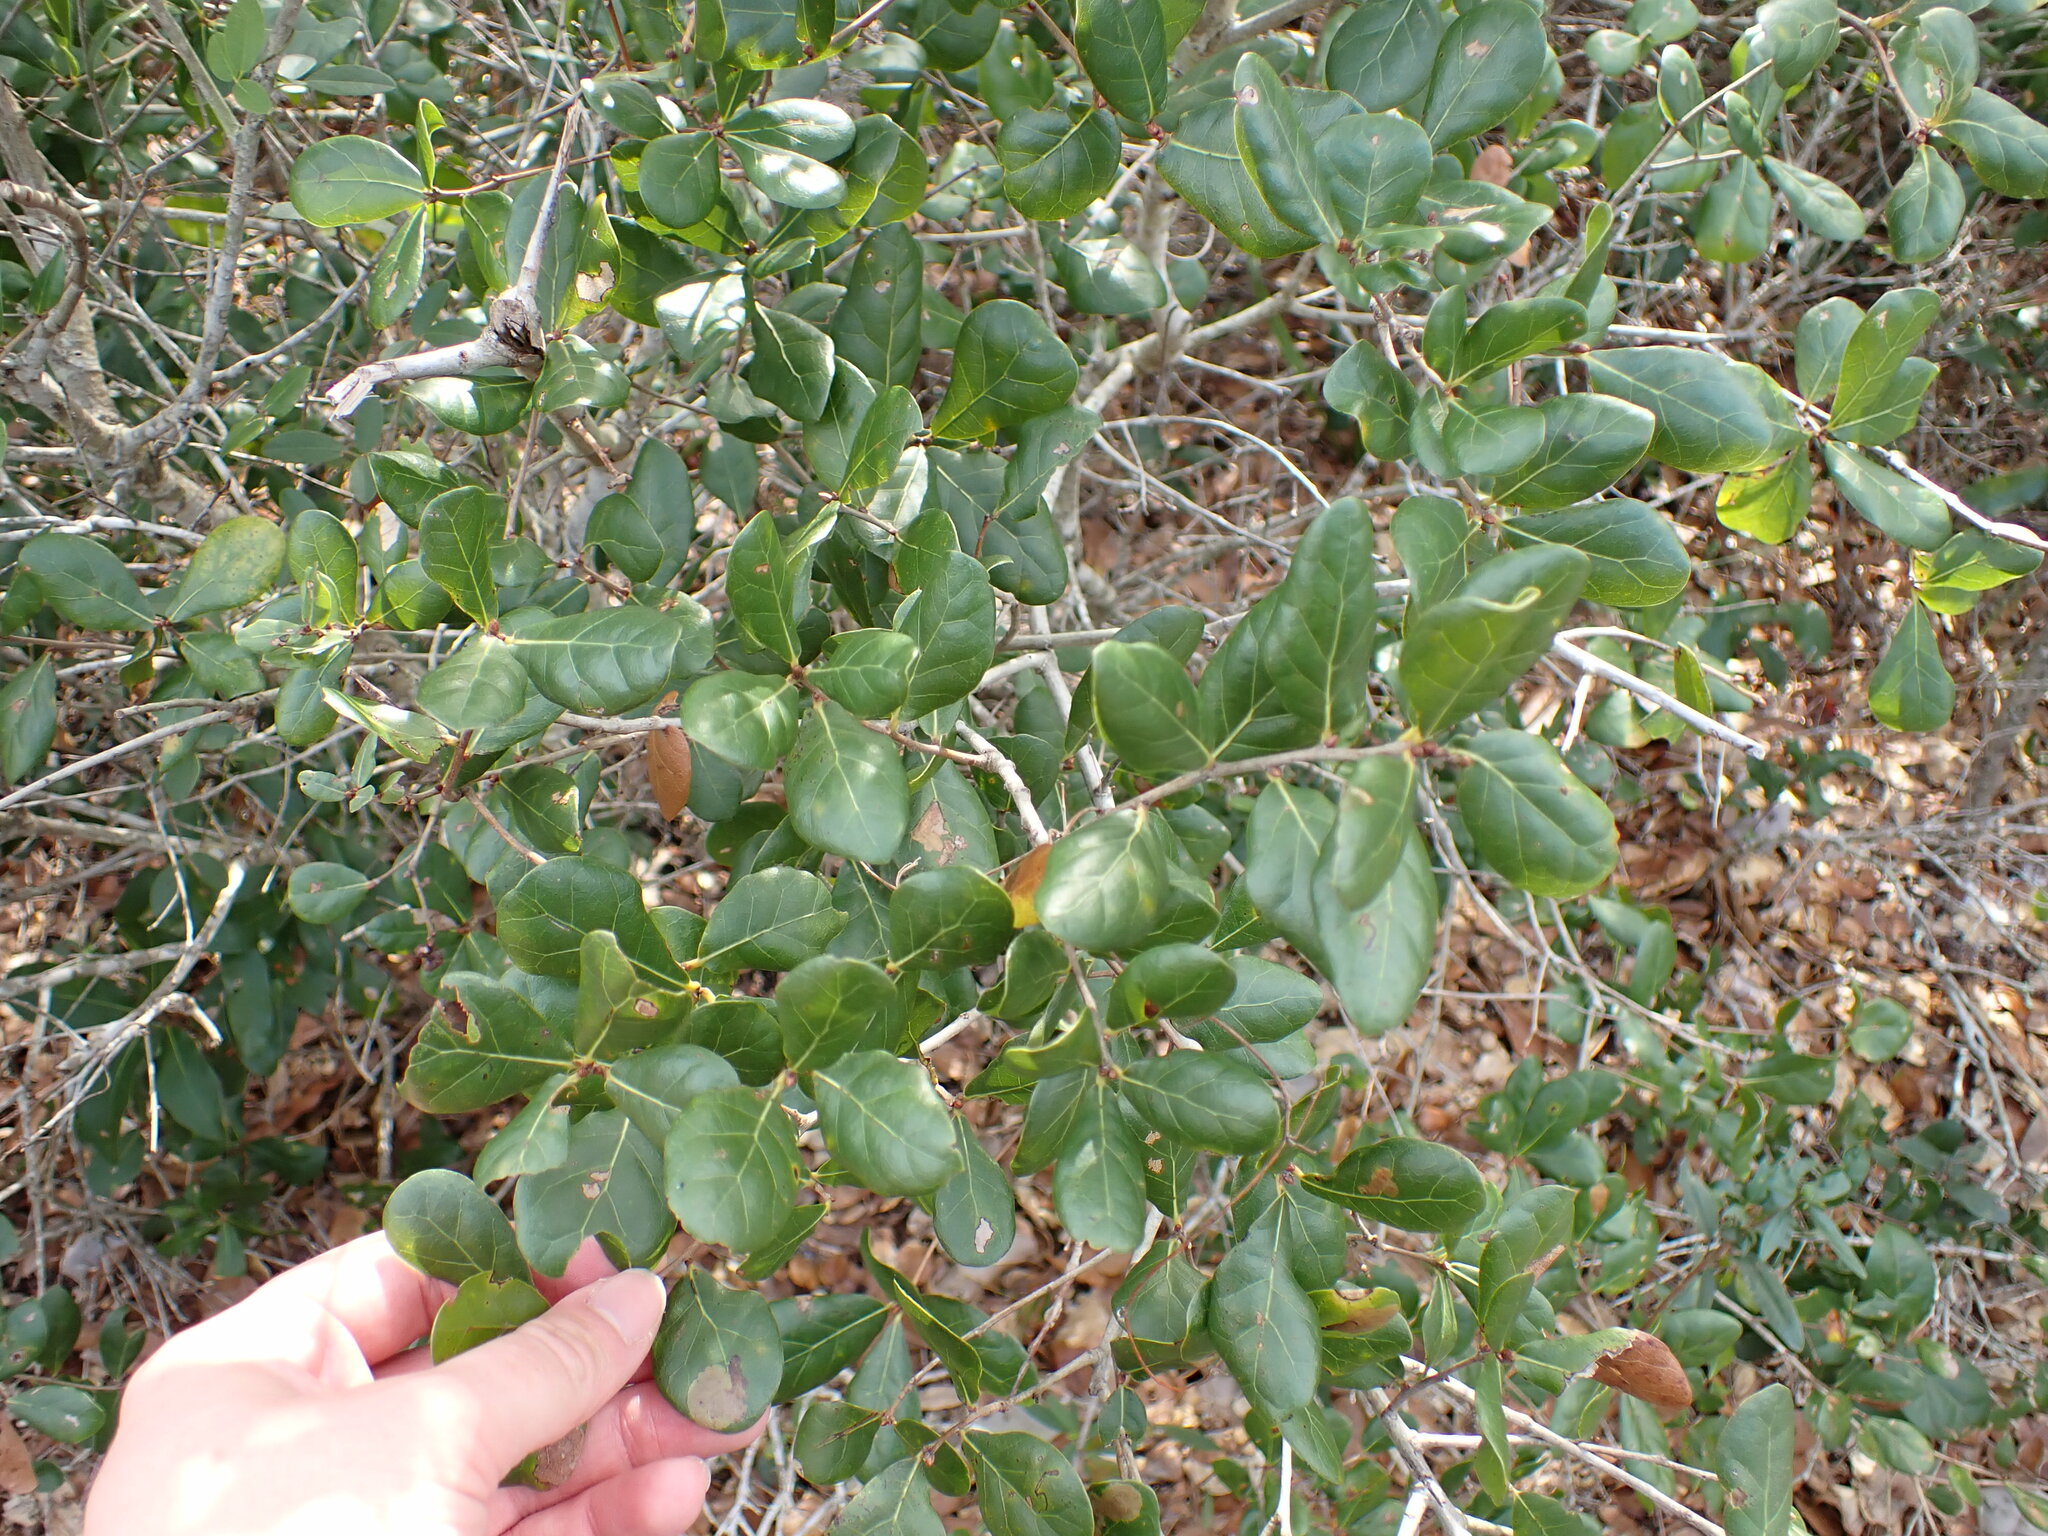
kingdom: Plantae
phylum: Tracheophyta
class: Magnoliopsida
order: Fagales
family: Fagaceae
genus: Quercus
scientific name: Quercus myrtifolia
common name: Myrtle oak
